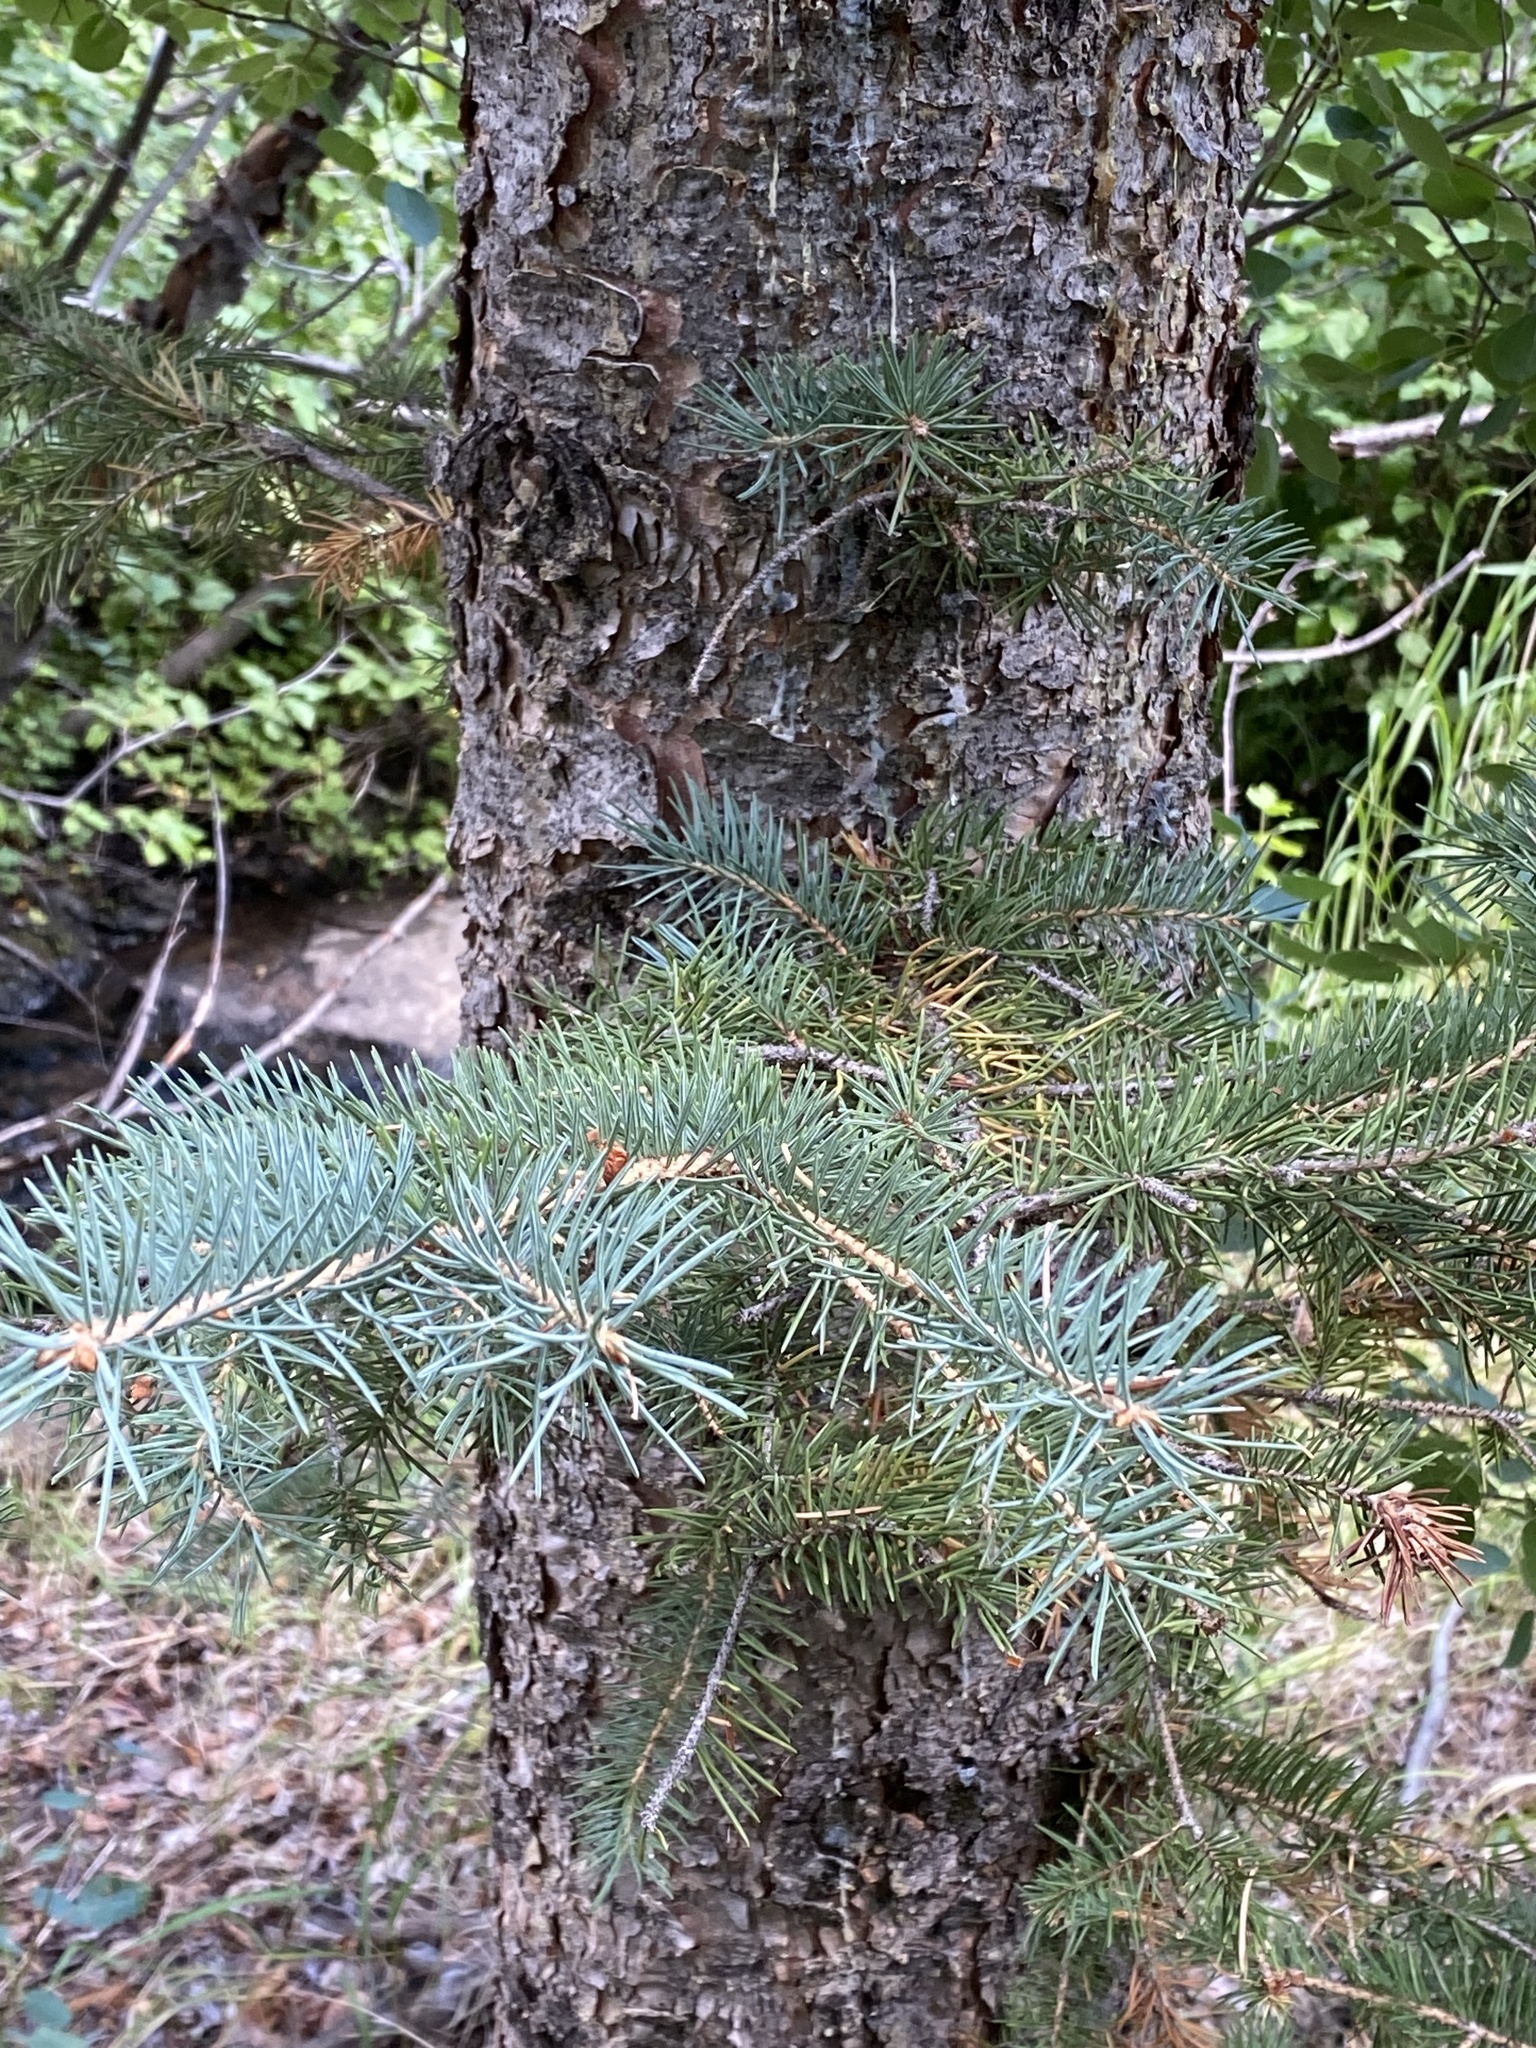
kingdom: Plantae
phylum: Tracheophyta
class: Pinopsida
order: Pinales
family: Pinaceae
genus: Picea
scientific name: Picea pungens
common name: Colorado spruce
